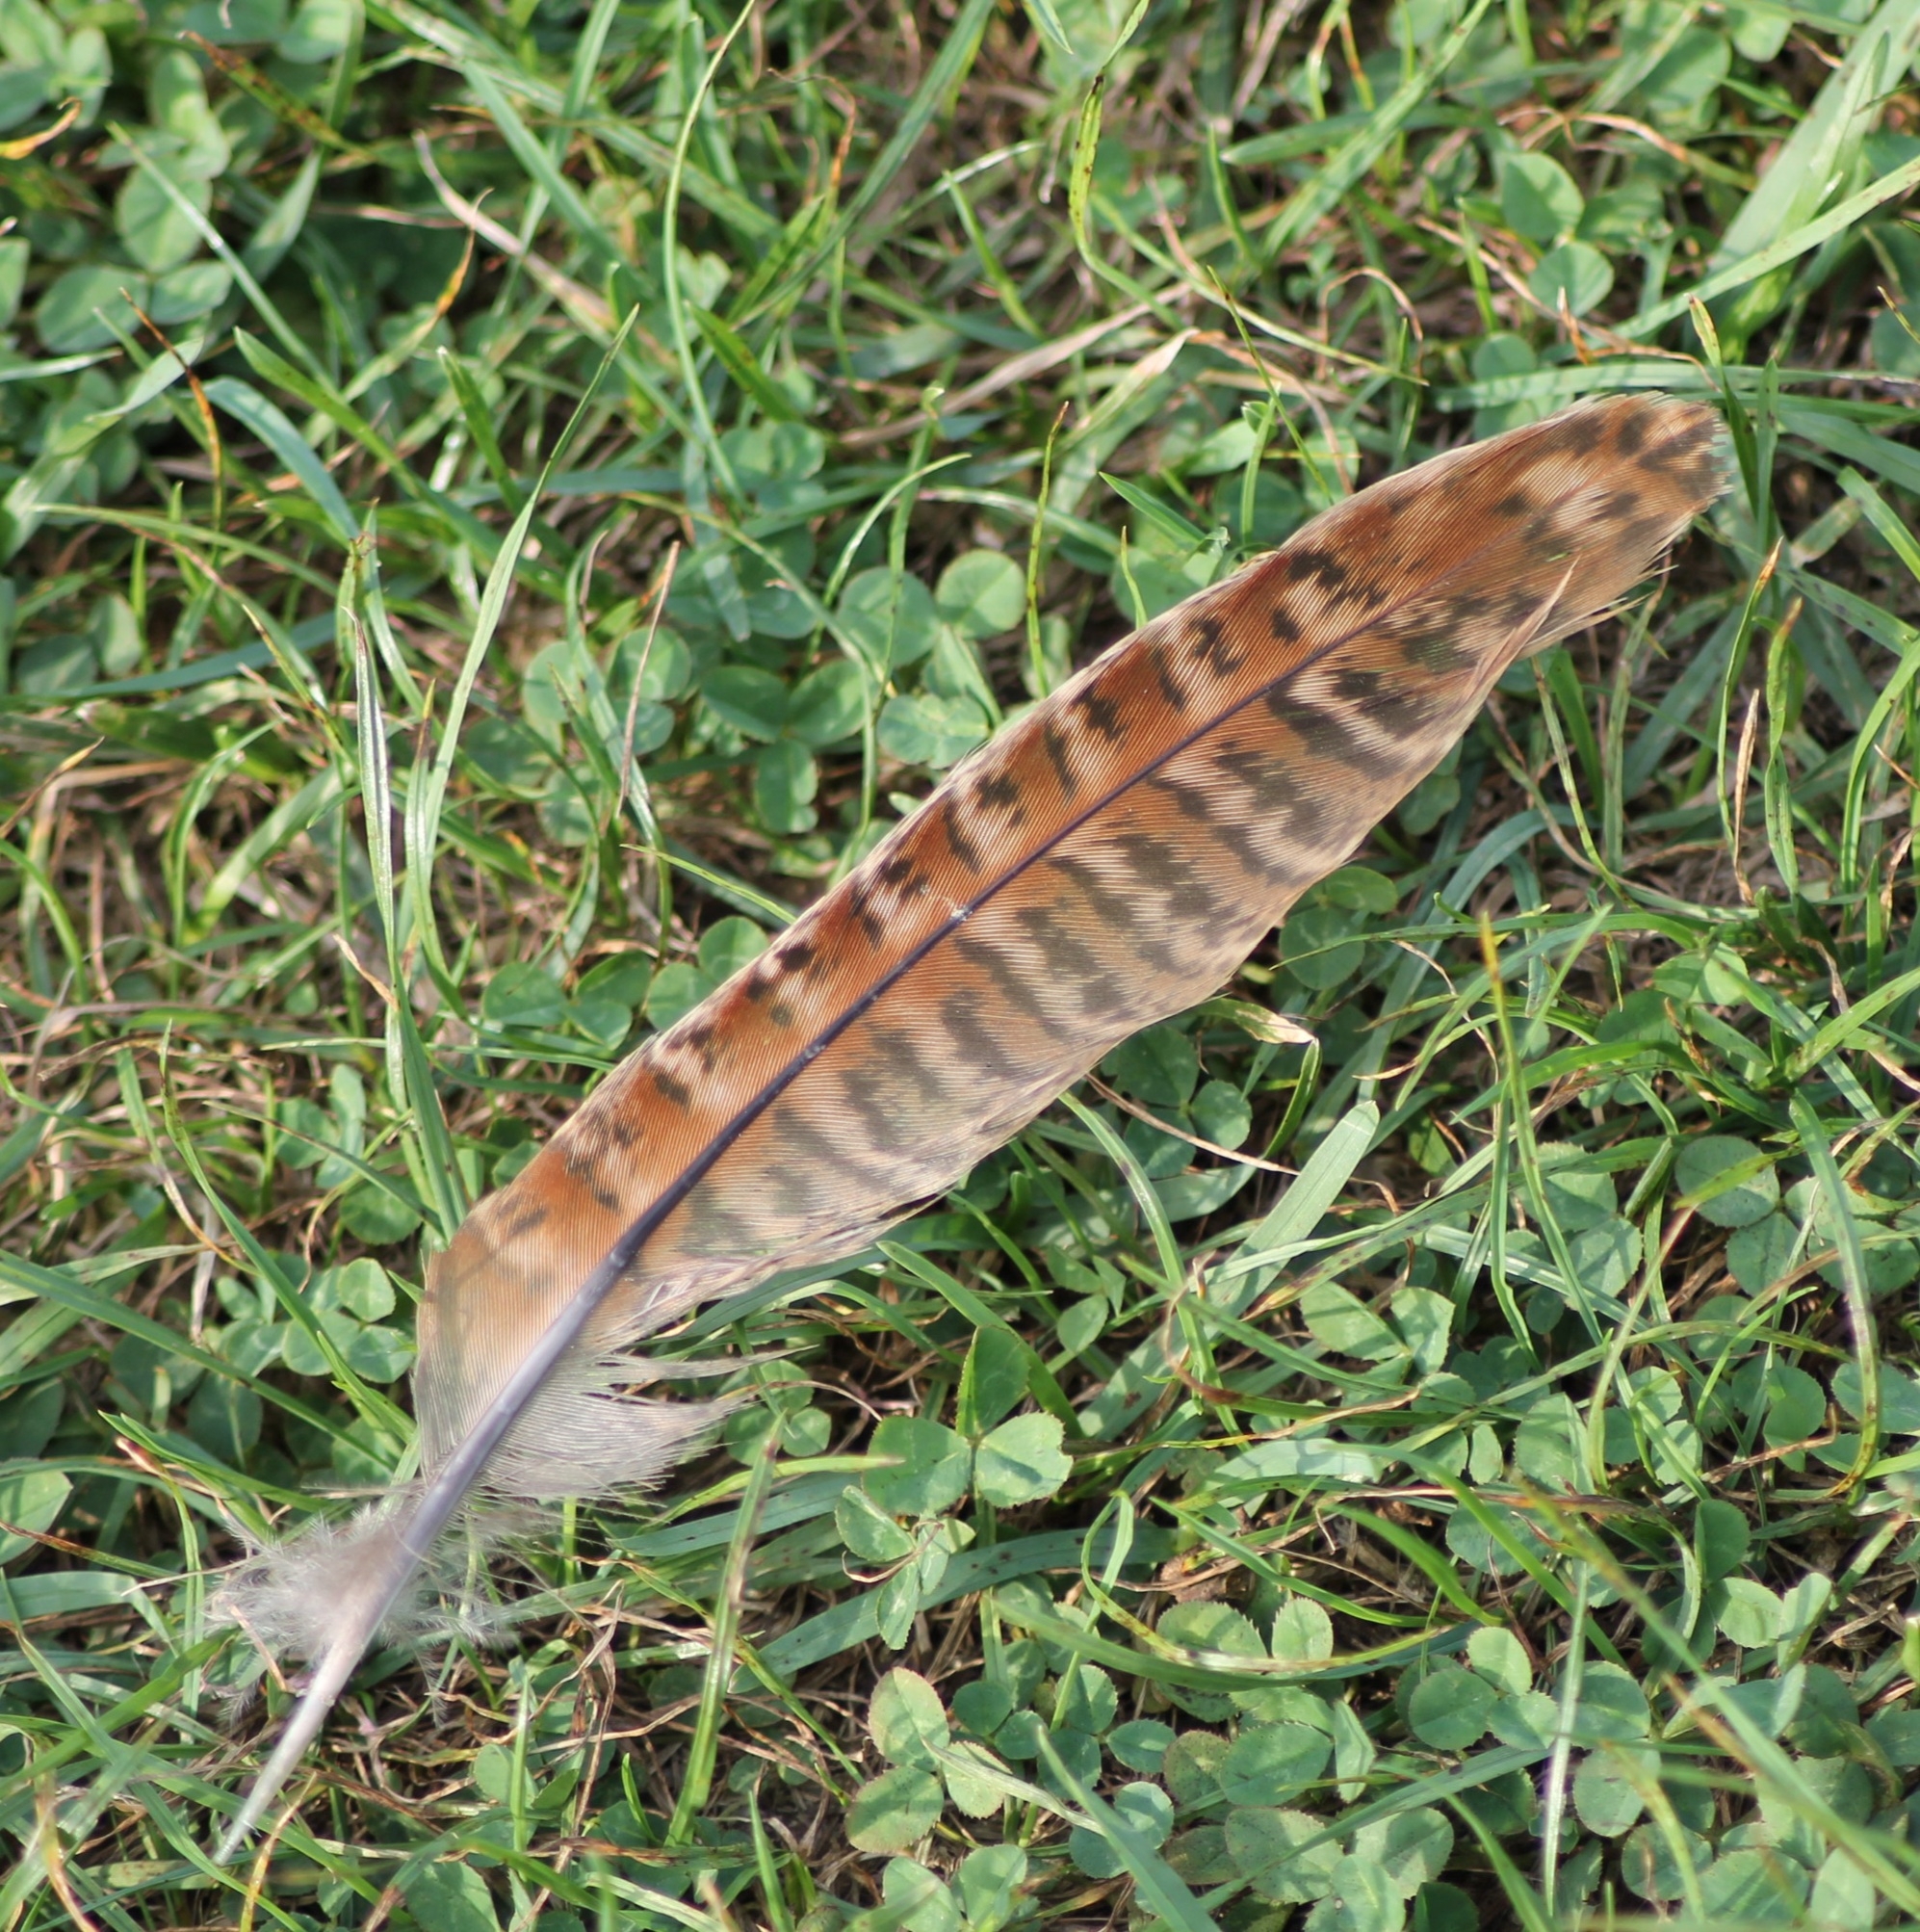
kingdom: Animalia
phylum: Chordata
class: Aves
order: Galliformes
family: Phasianidae
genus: Phasianus
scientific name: Phasianus colchicus
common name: Common pheasant
